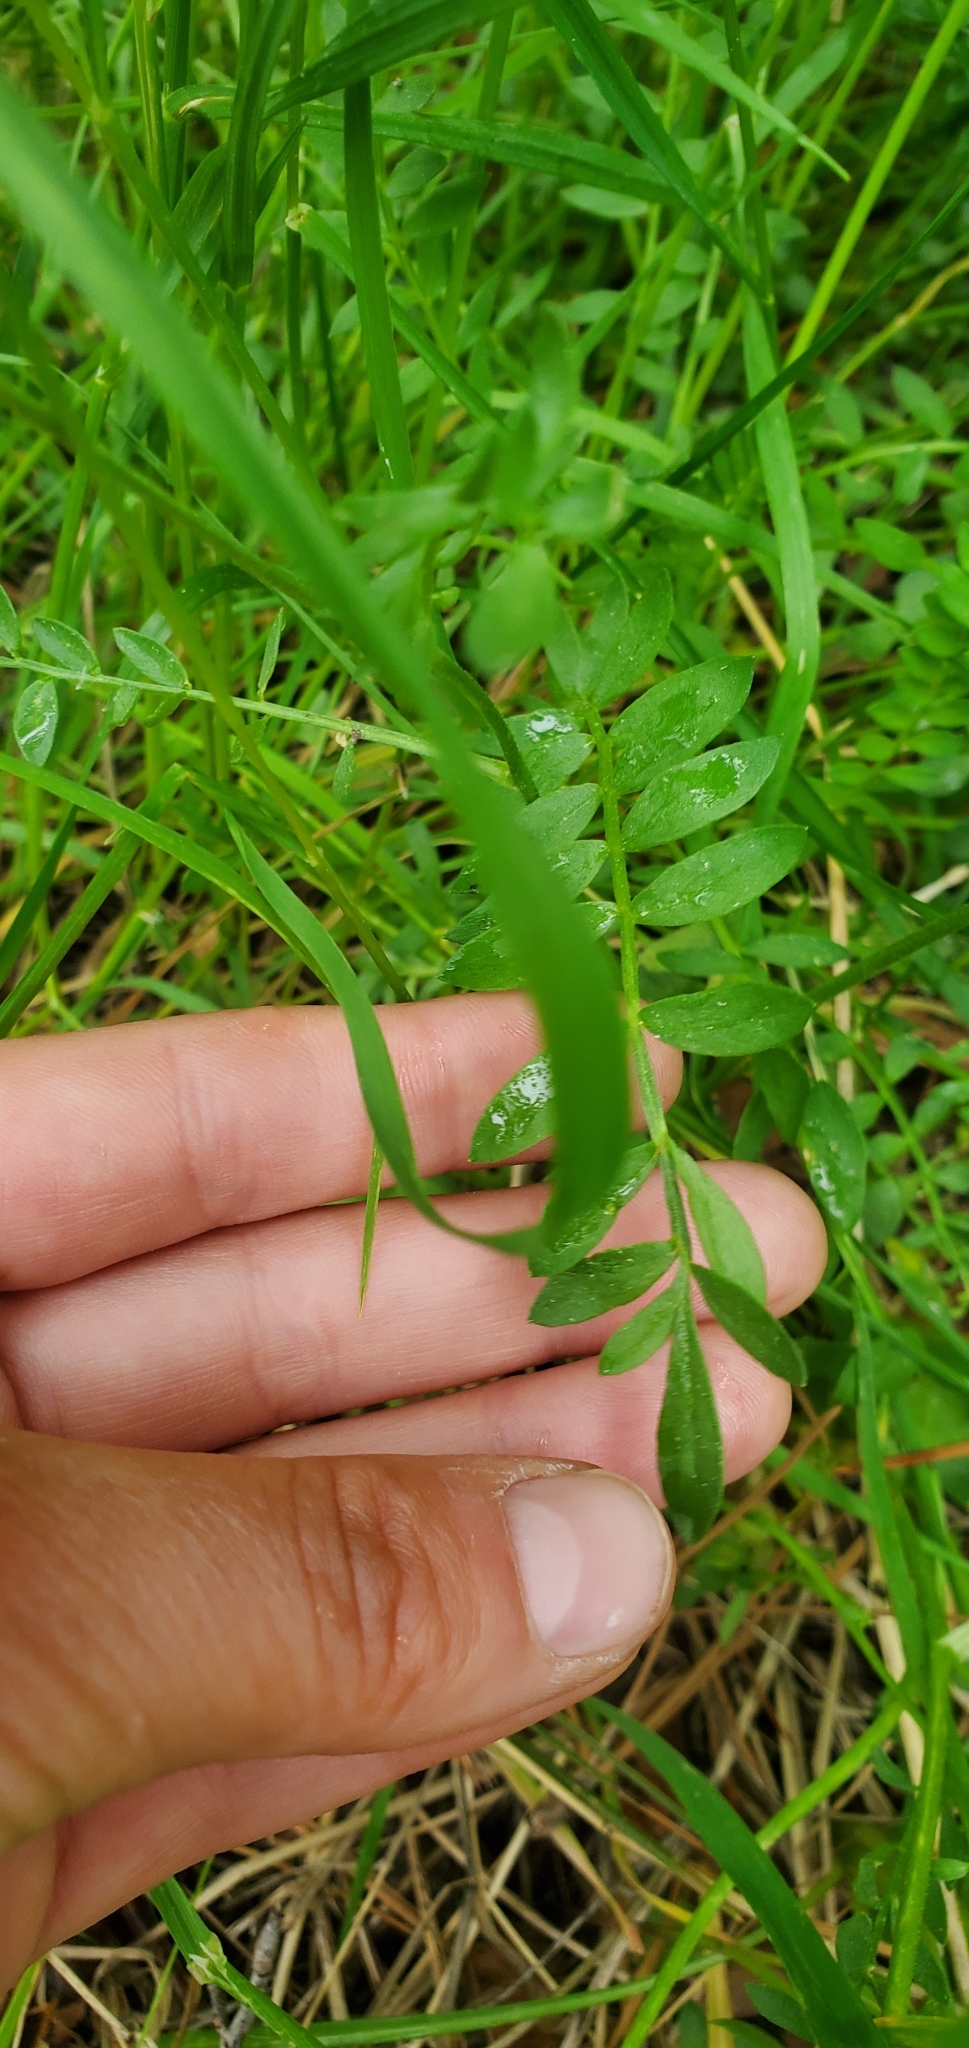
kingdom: Plantae
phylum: Tracheophyta
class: Magnoliopsida
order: Ericales
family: Polemoniaceae
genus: Polemonium
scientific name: Polemonium pulcherrimum
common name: Short jacob's-ladder
